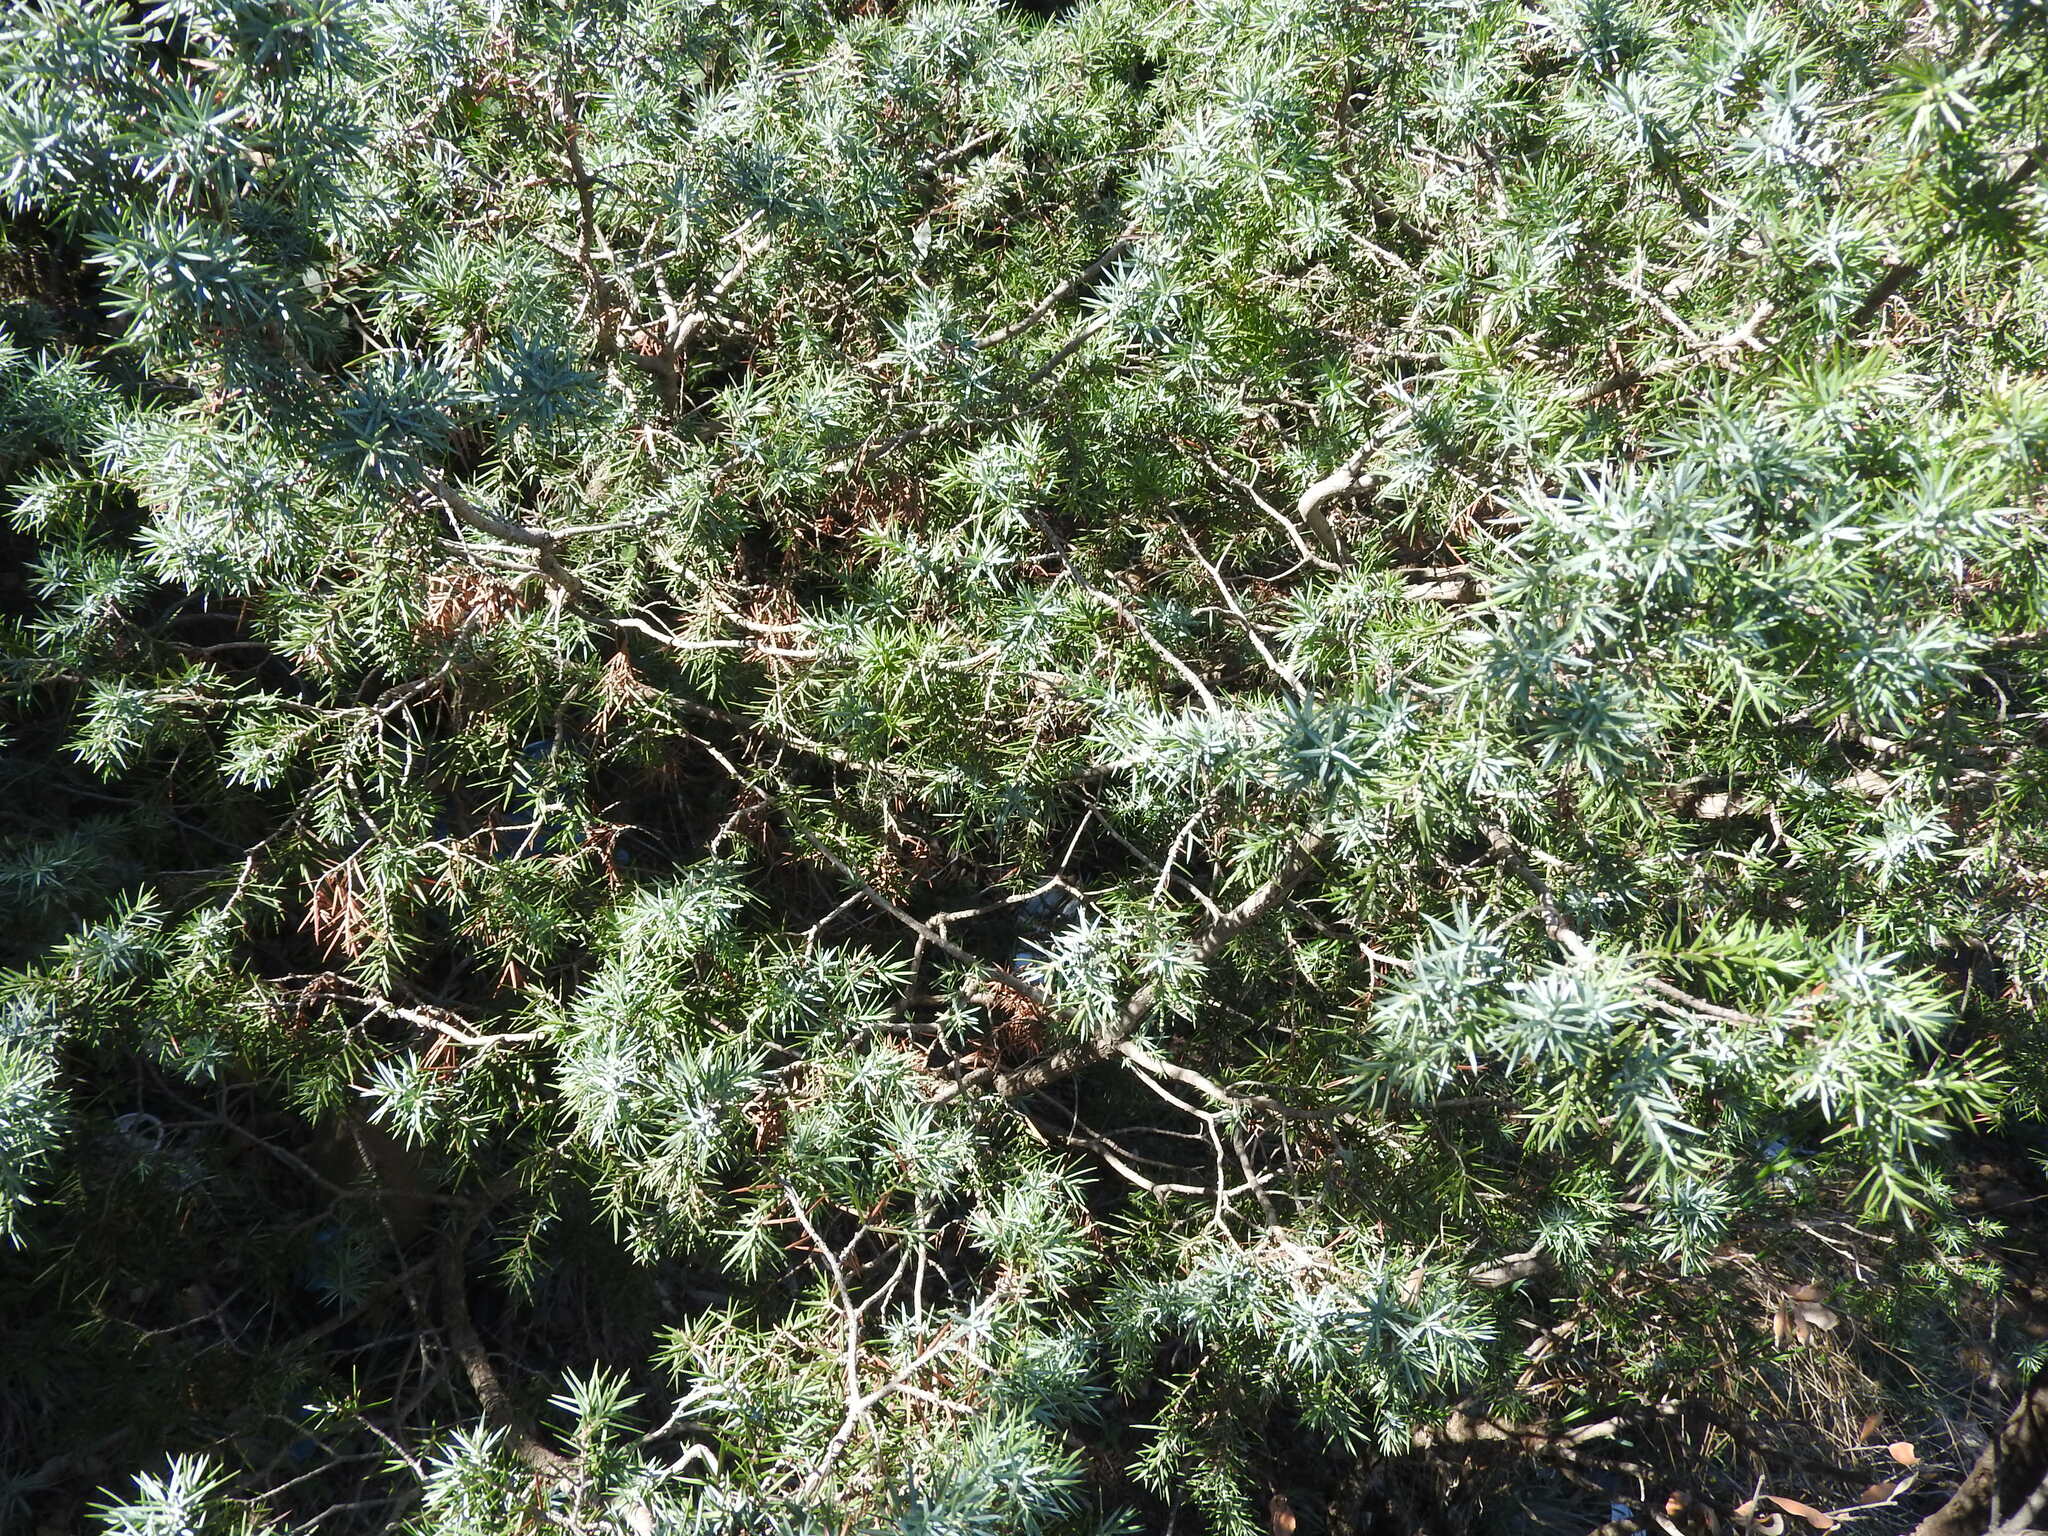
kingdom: Plantae
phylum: Tracheophyta
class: Pinopsida
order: Pinales
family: Cupressaceae
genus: Juniperus
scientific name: Juniperus oxycedrus
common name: Prickly juniper
